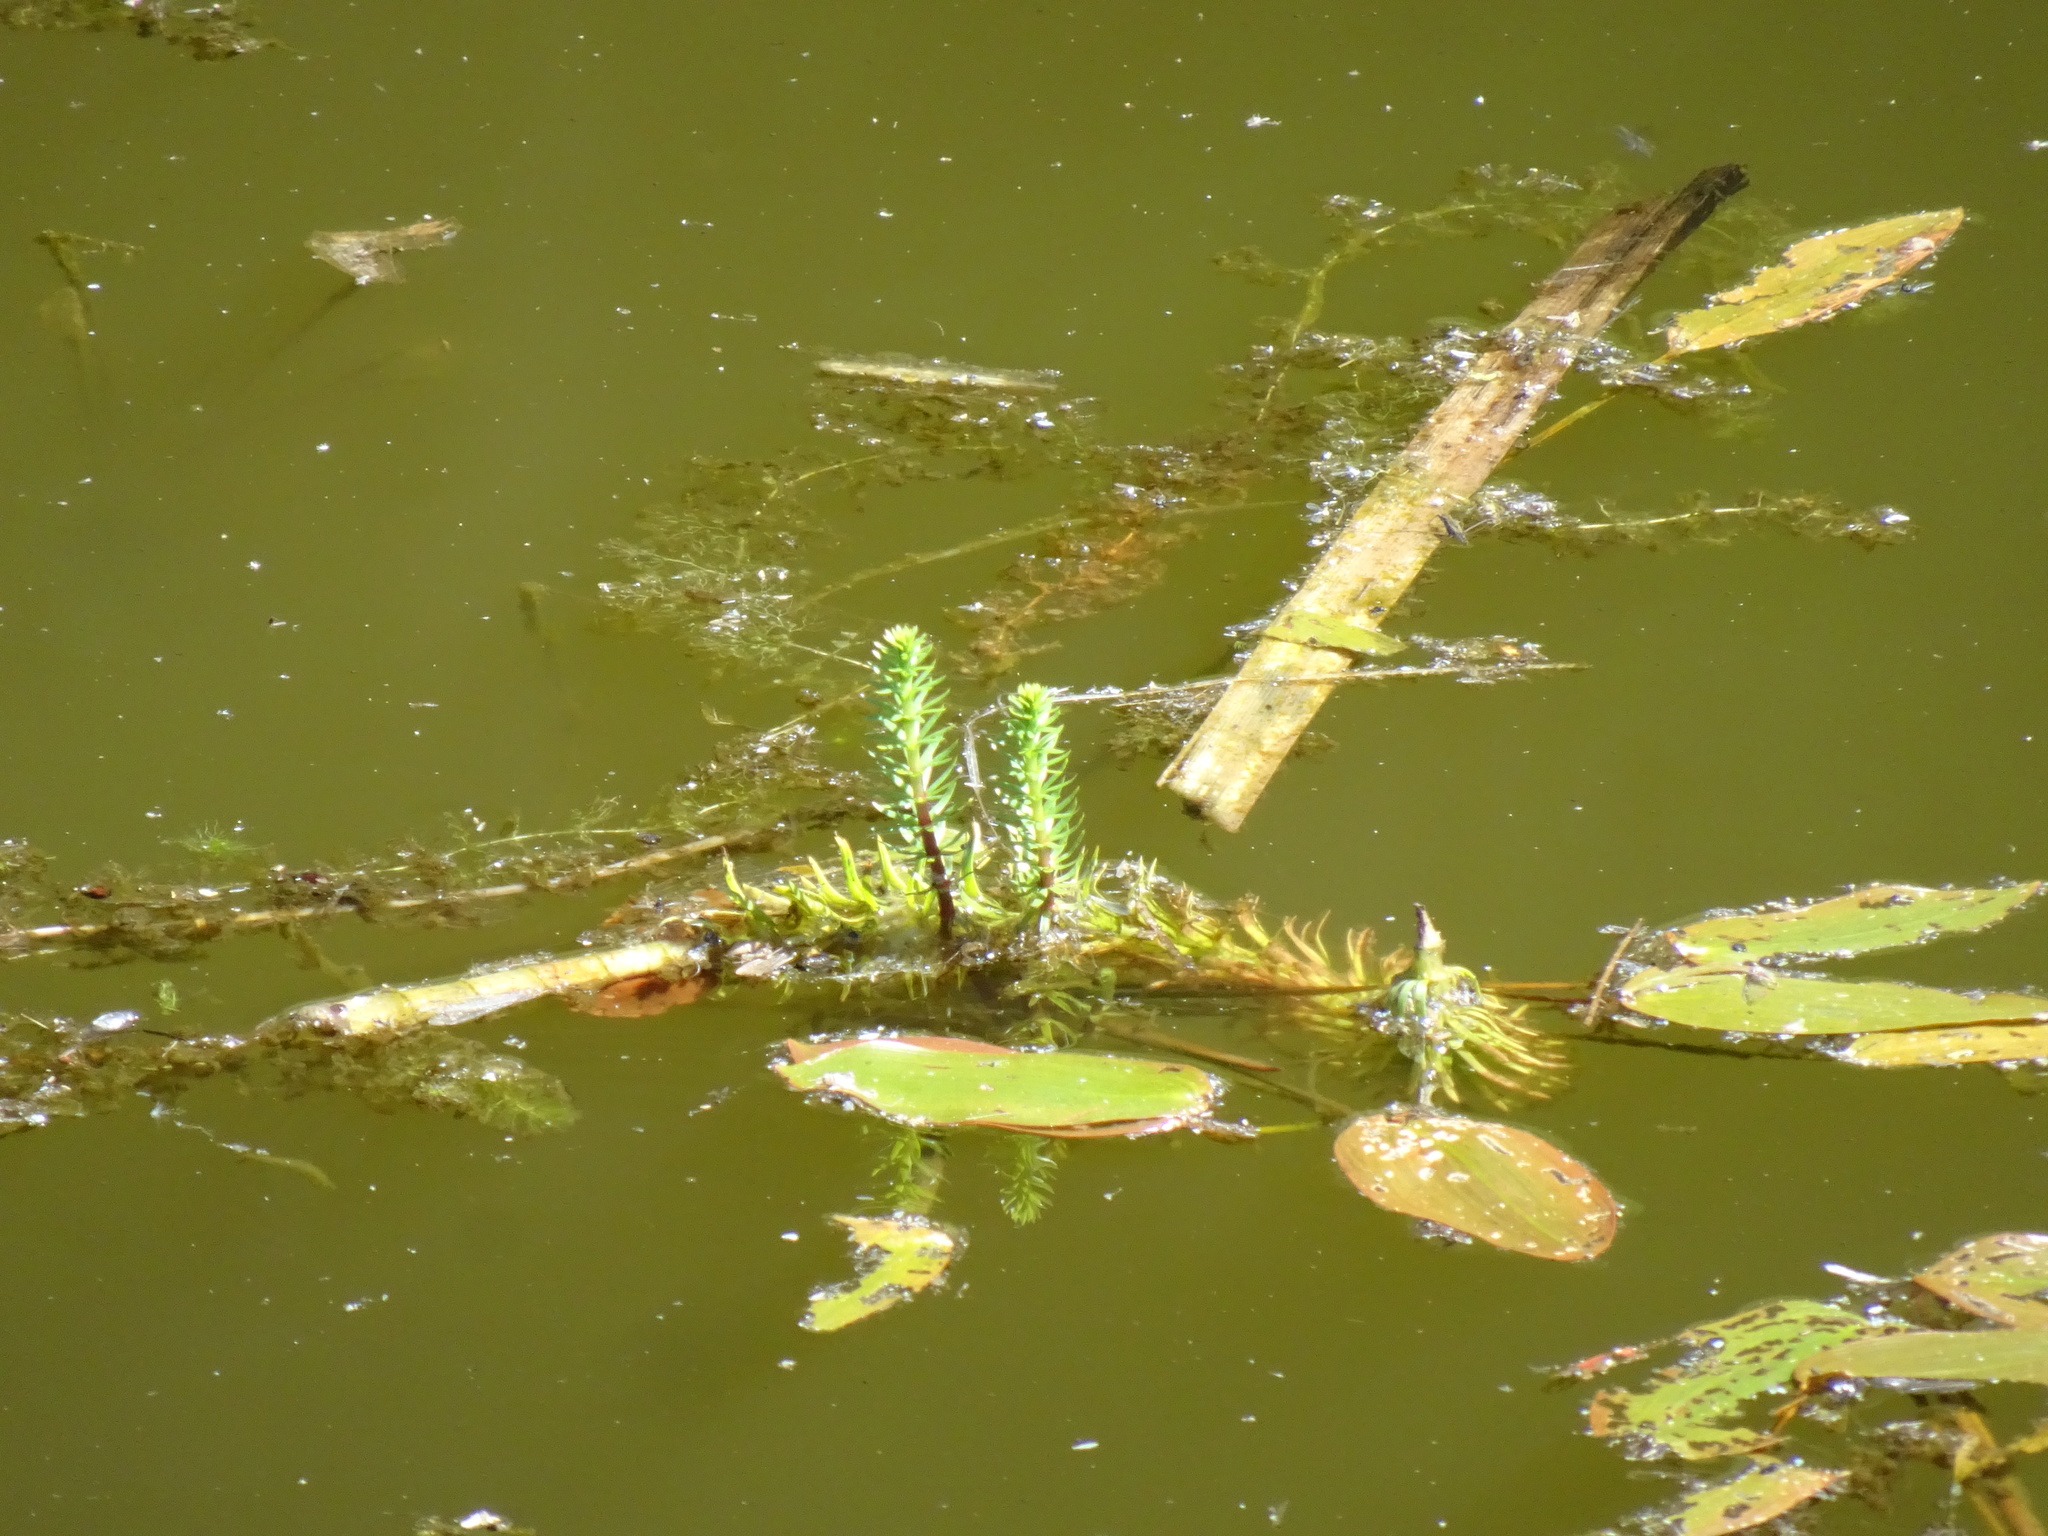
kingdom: Plantae
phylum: Tracheophyta
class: Magnoliopsida
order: Lamiales
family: Plantaginaceae
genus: Hippuris
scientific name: Hippuris vulgaris
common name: Mare's-tail
